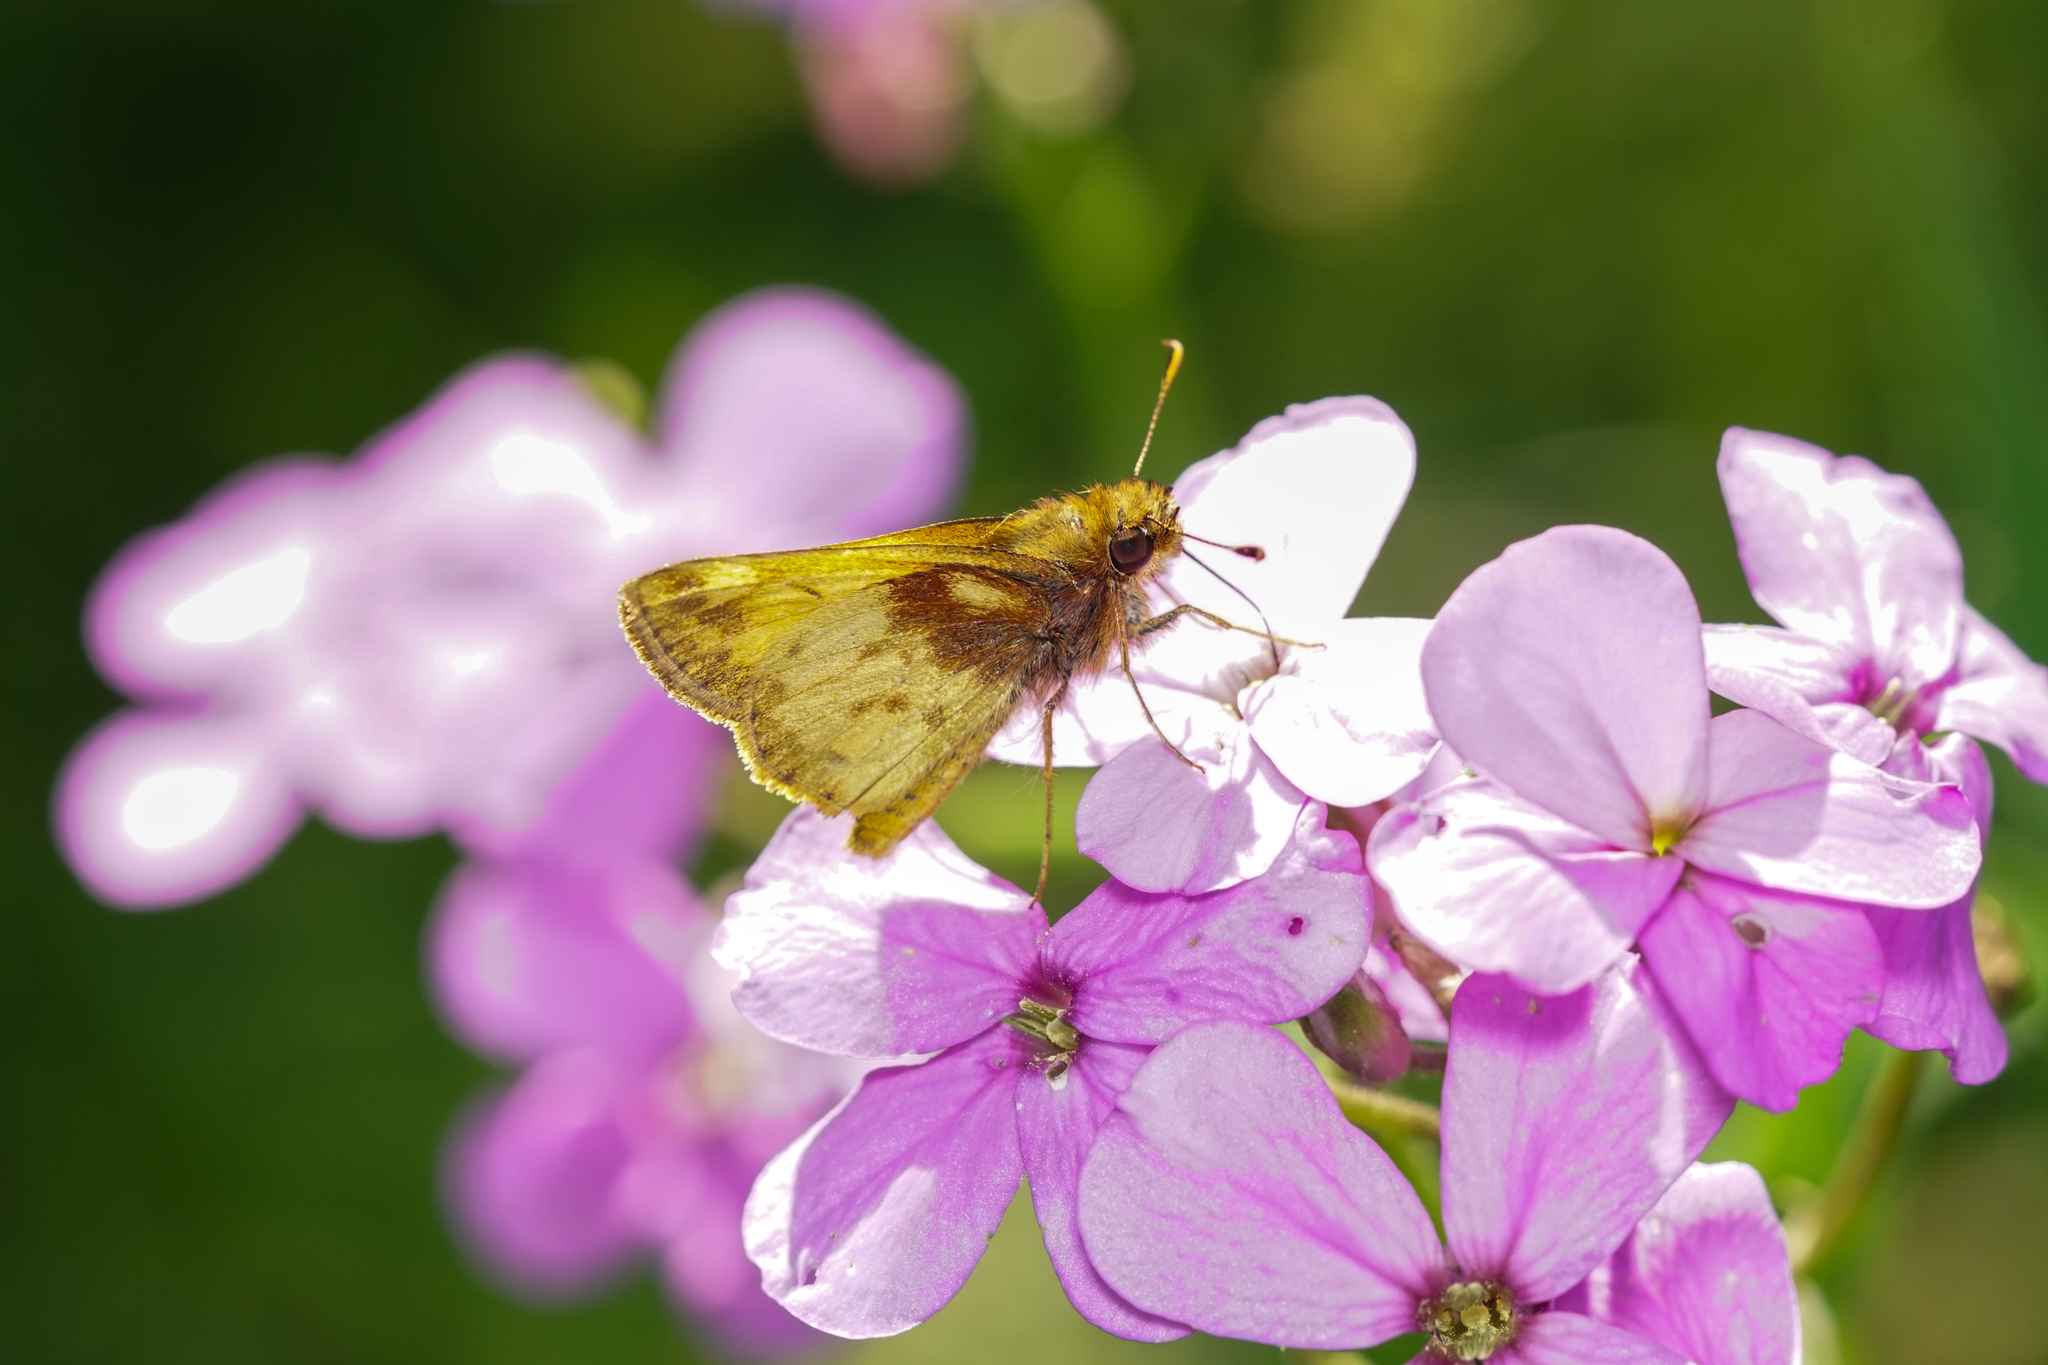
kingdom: Animalia
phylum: Arthropoda
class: Insecta
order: Lepidoptera
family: Hesperiidae
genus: Lon
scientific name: Lon zabulon
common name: Zabulon skipper
